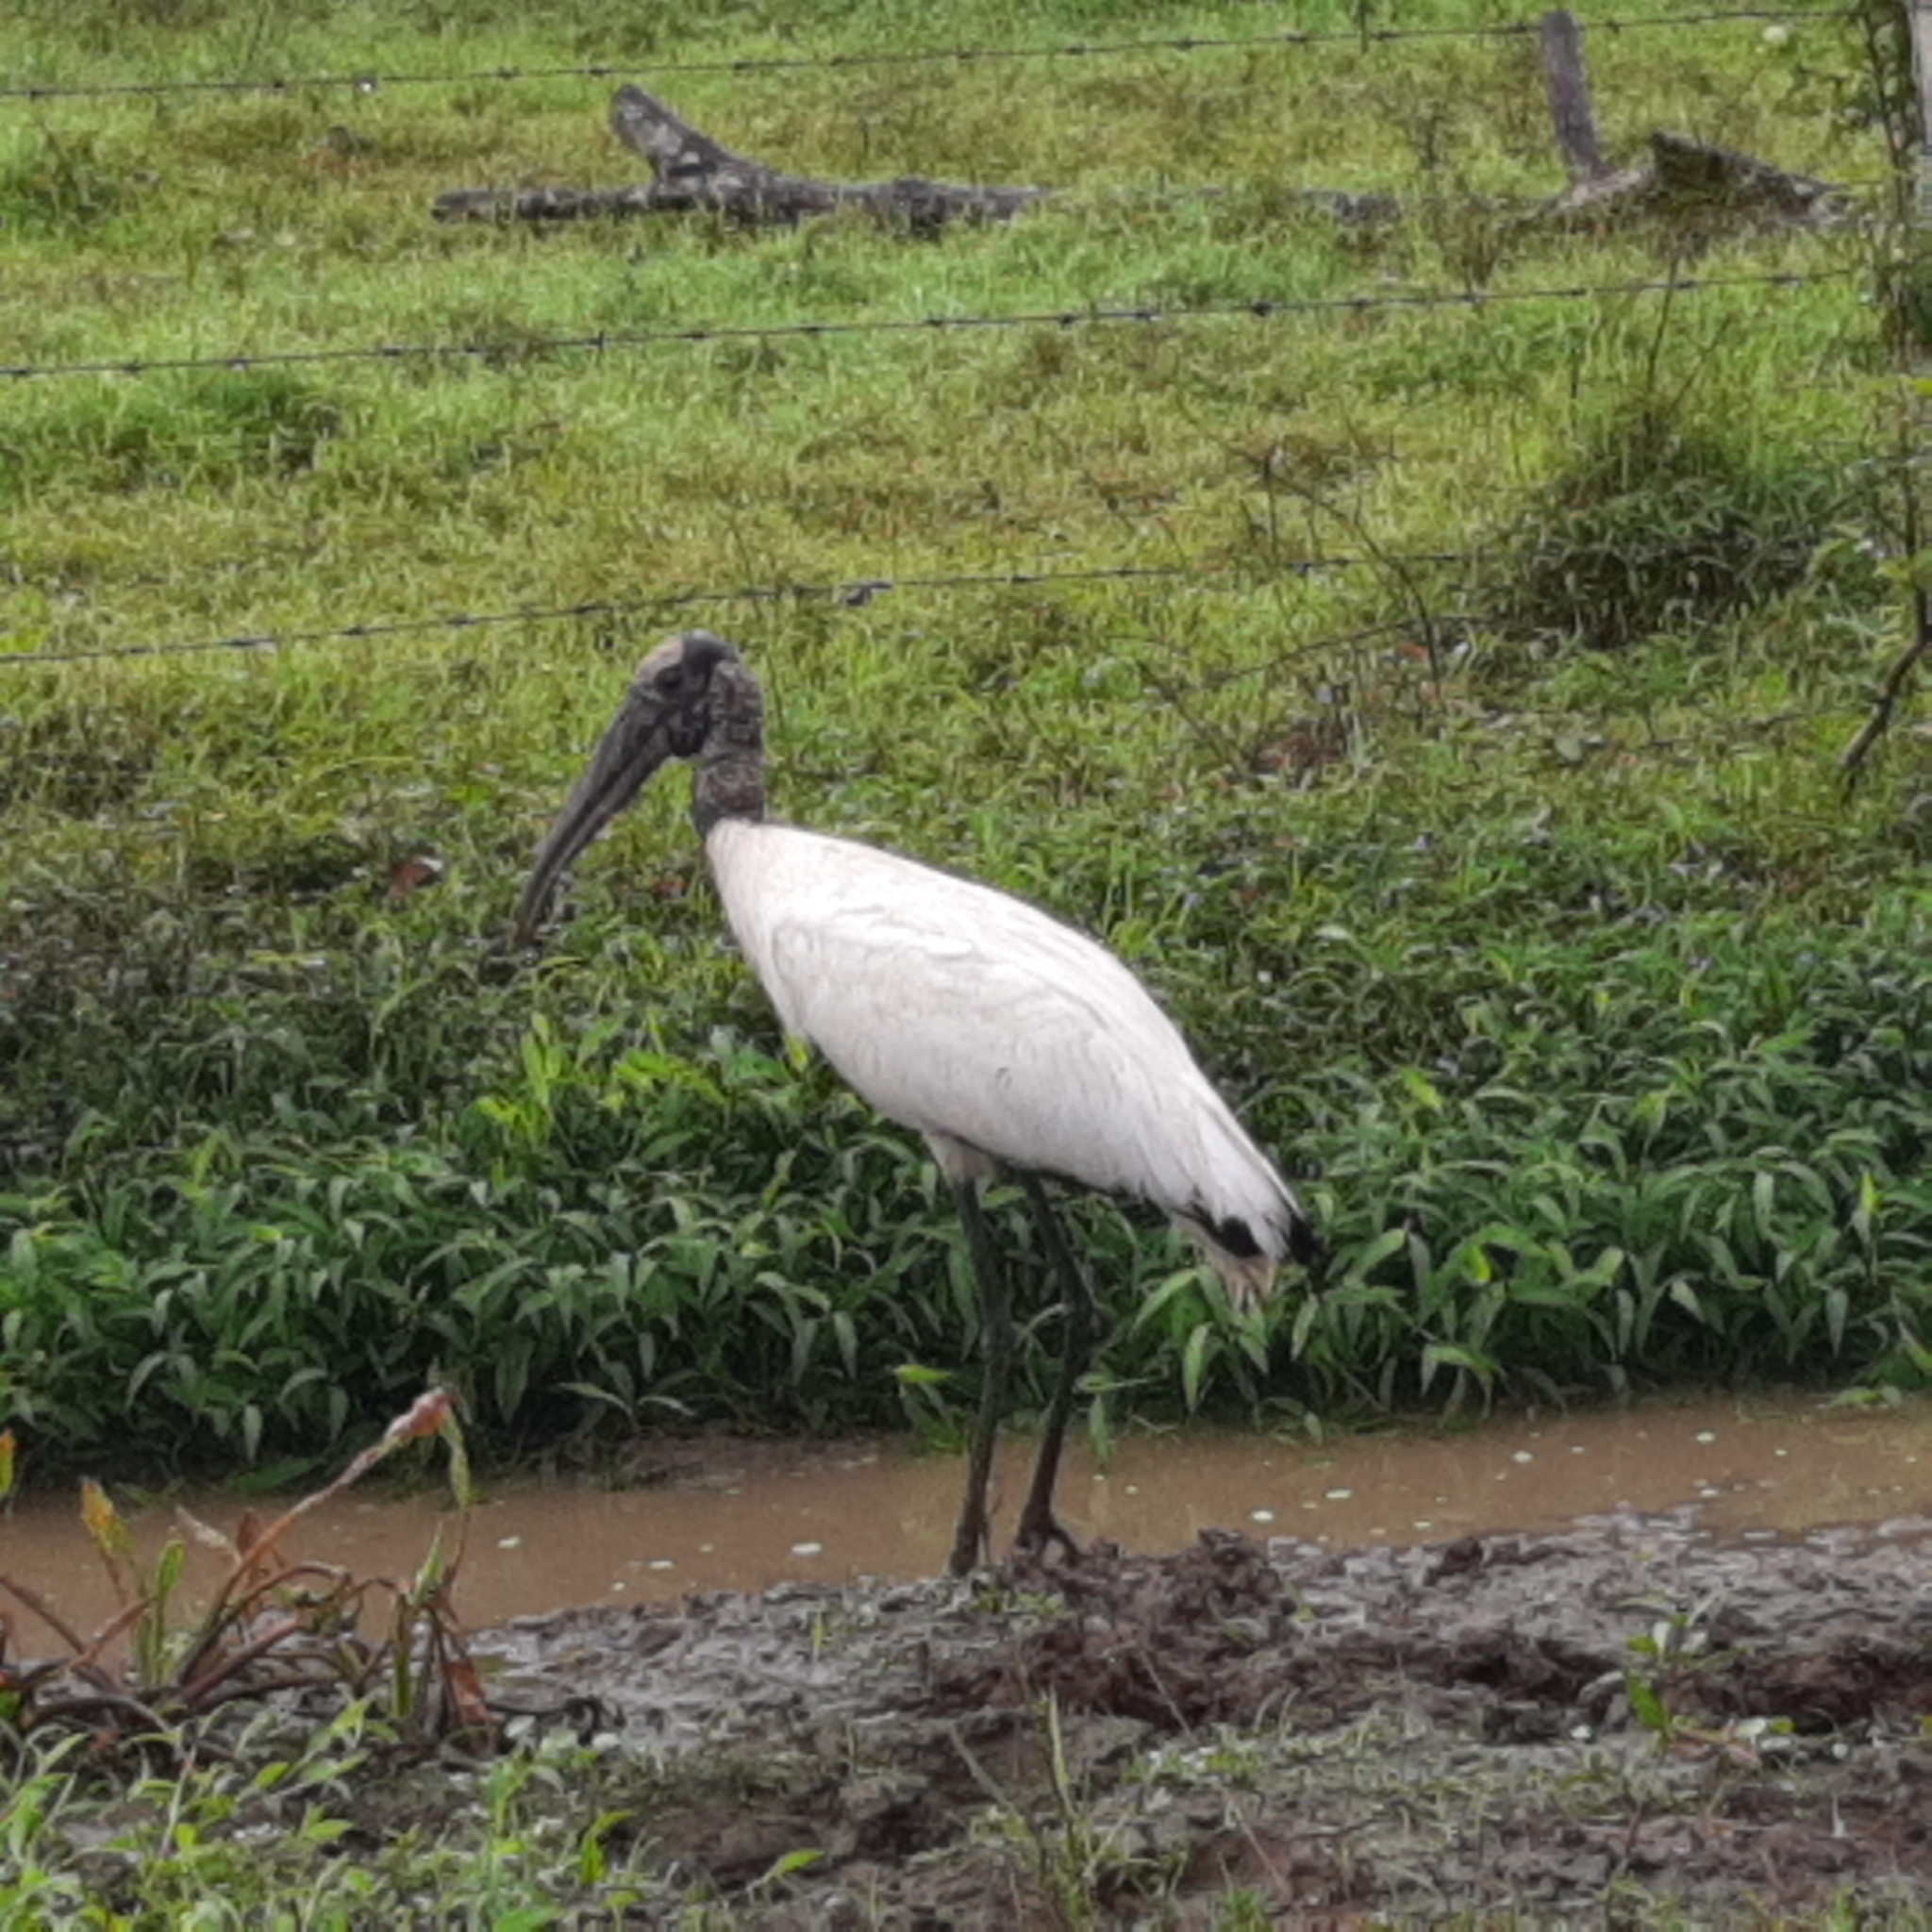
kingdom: Animalia
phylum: Chordata
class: Aves
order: Ciconiiformes
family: Ciconiidae
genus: Mycteria
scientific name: Mycteria americana
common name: Wood stork
